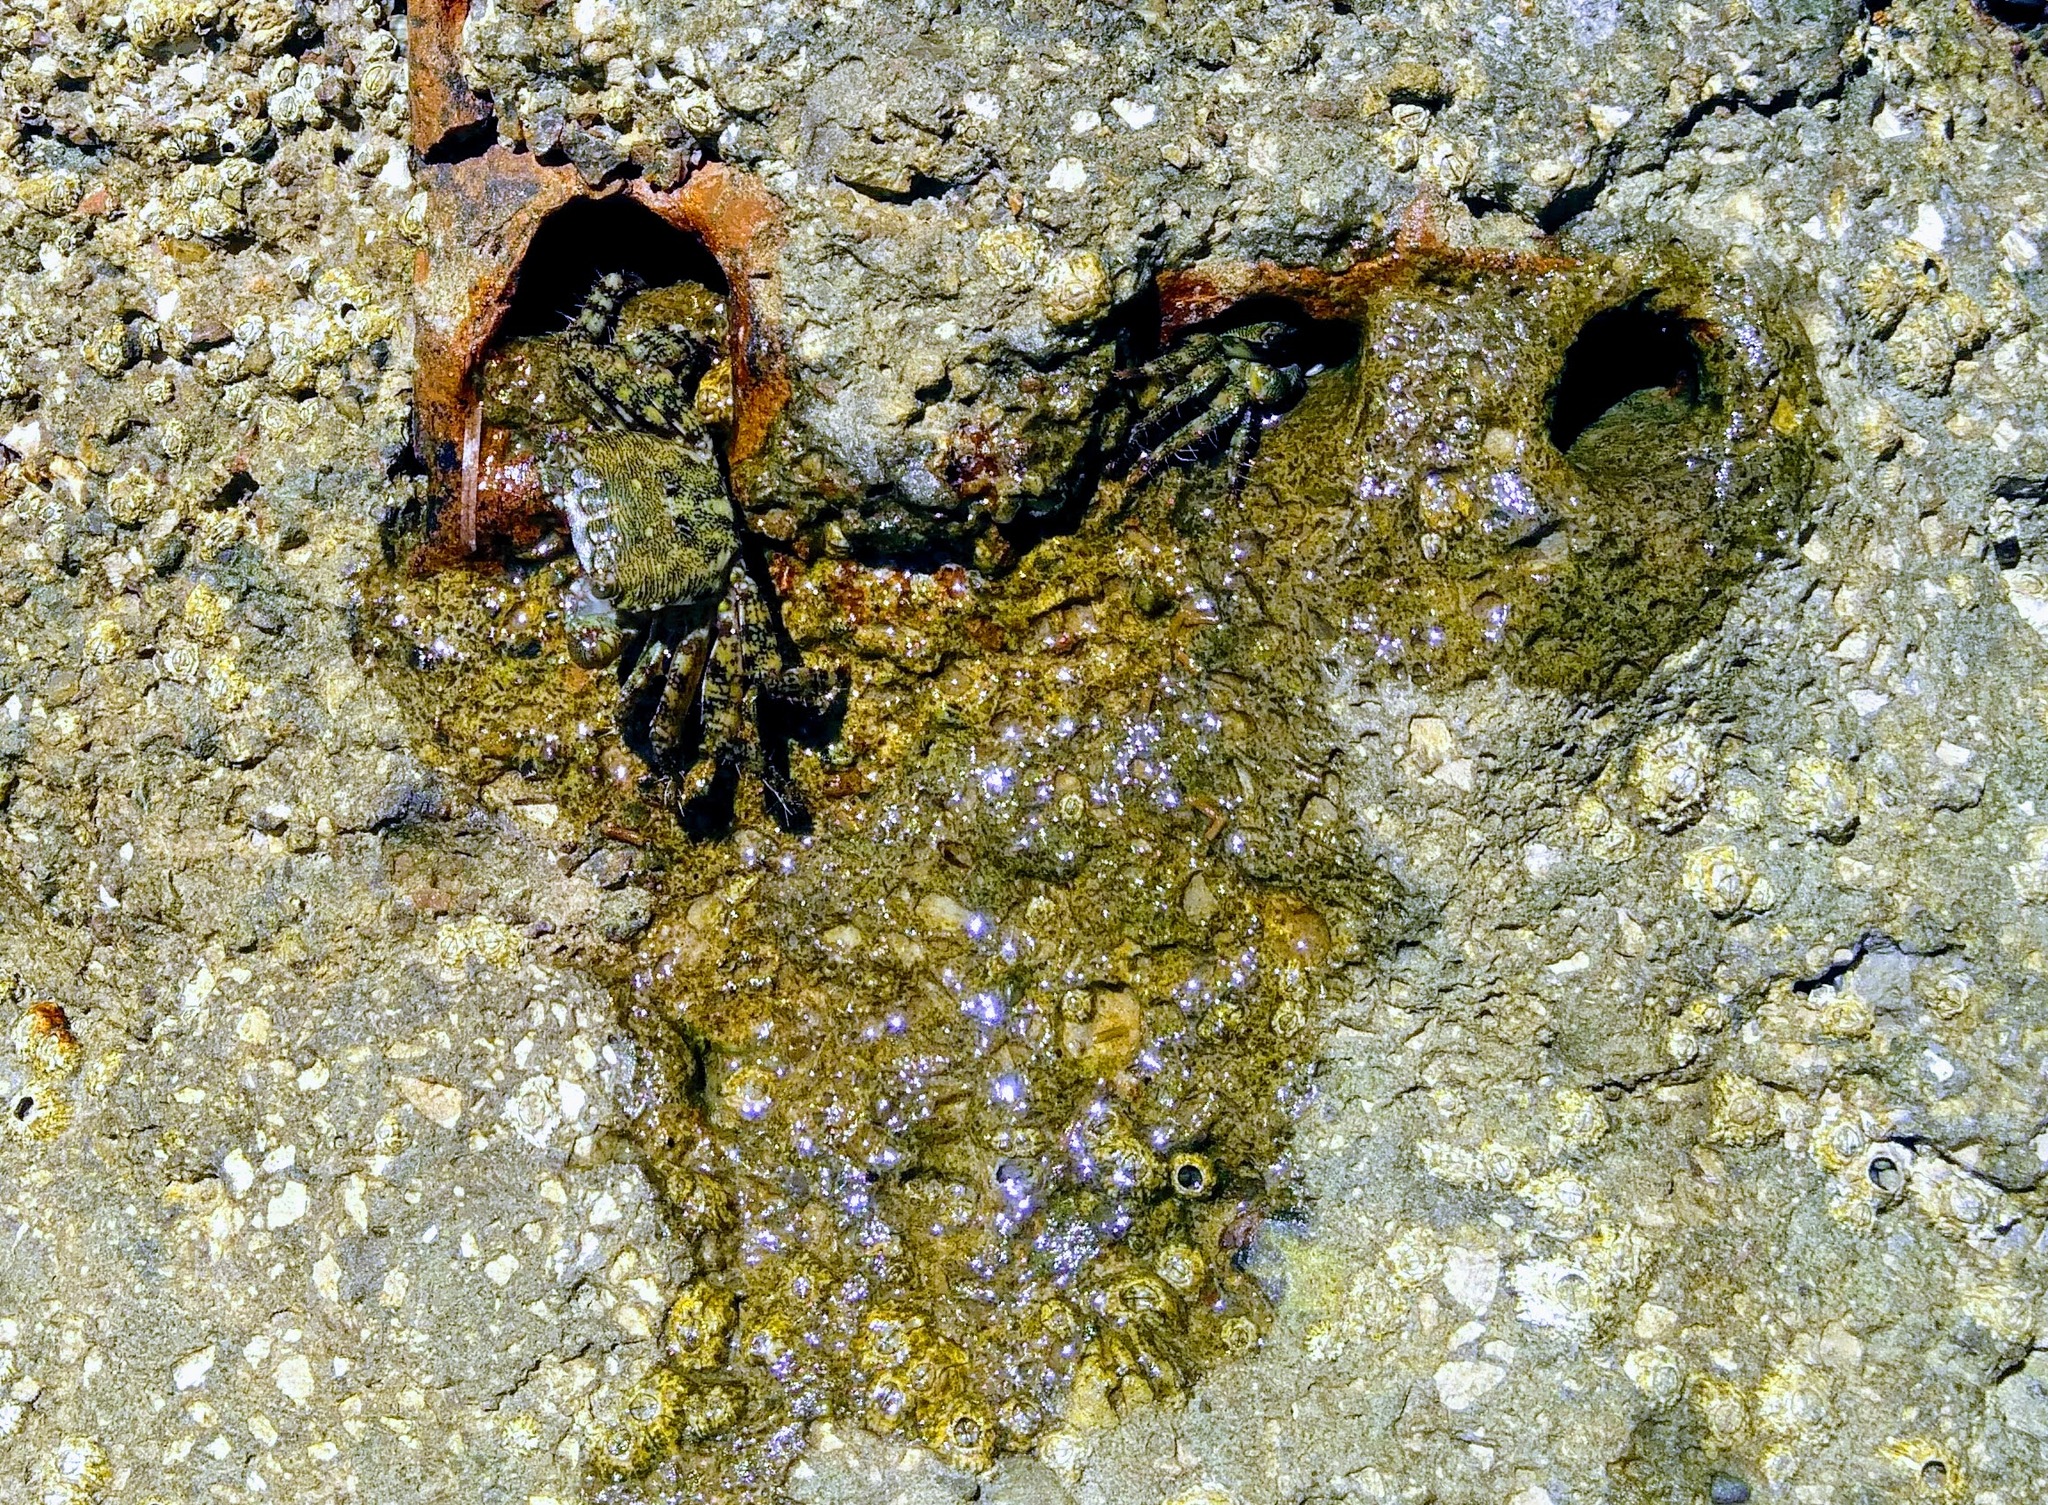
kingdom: Animalia
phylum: Arthropoda
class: Malacostraca
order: Decapoda
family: Grapsidae
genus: Pachygrapsus
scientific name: Pachygrapsus marmoratus
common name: Marbled rock crab
